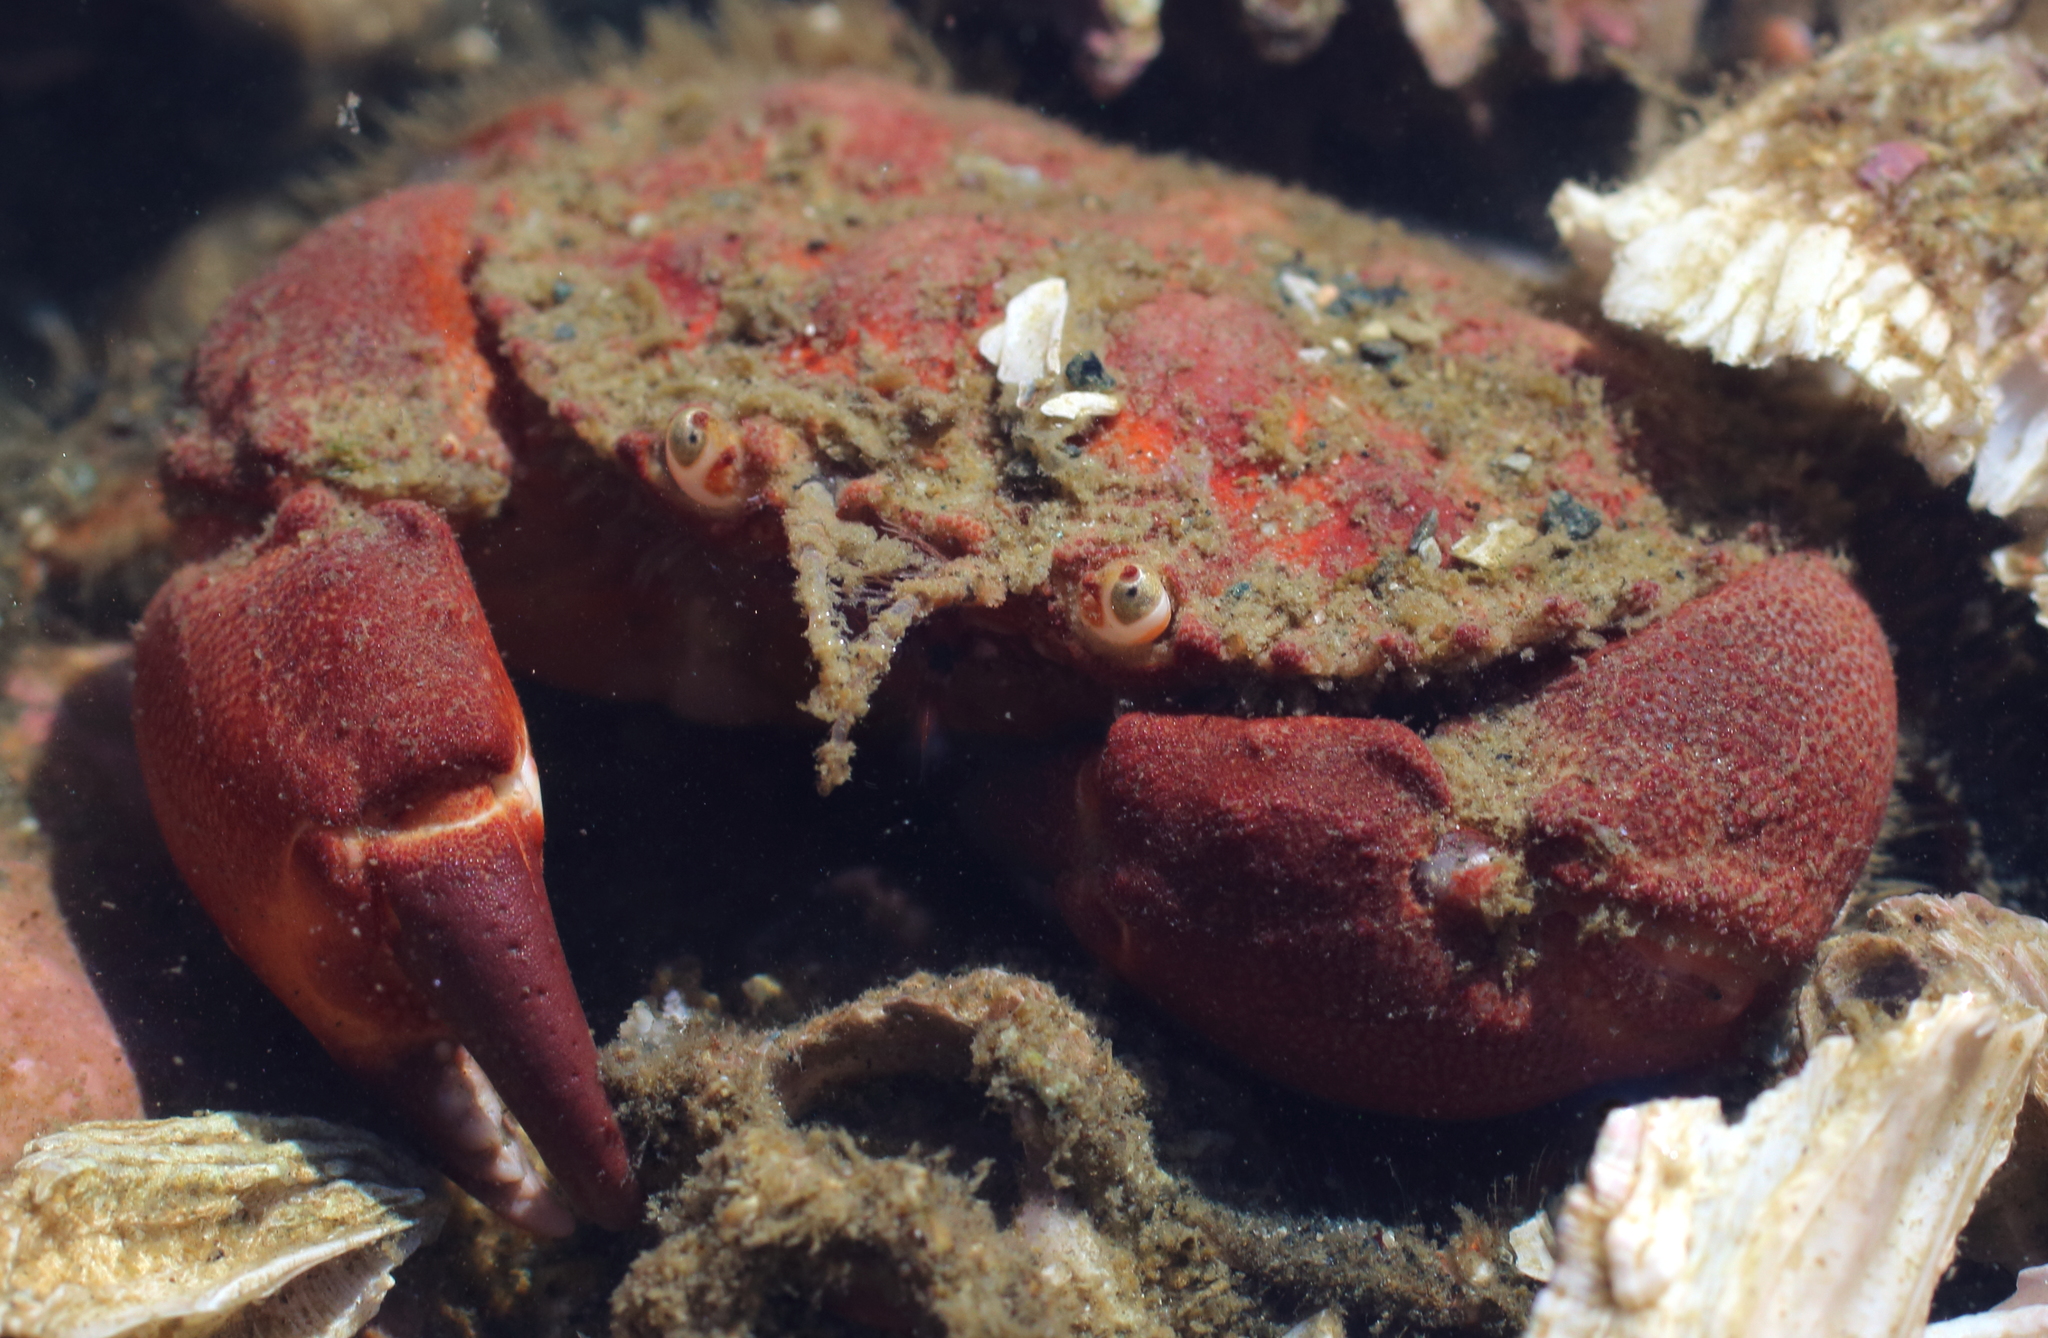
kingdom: Animalia
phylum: Arthropoda
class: Malacostraca
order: Decapoda
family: Cancridae
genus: Glebocarcinus
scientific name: Glebocarcinus oregonensis
